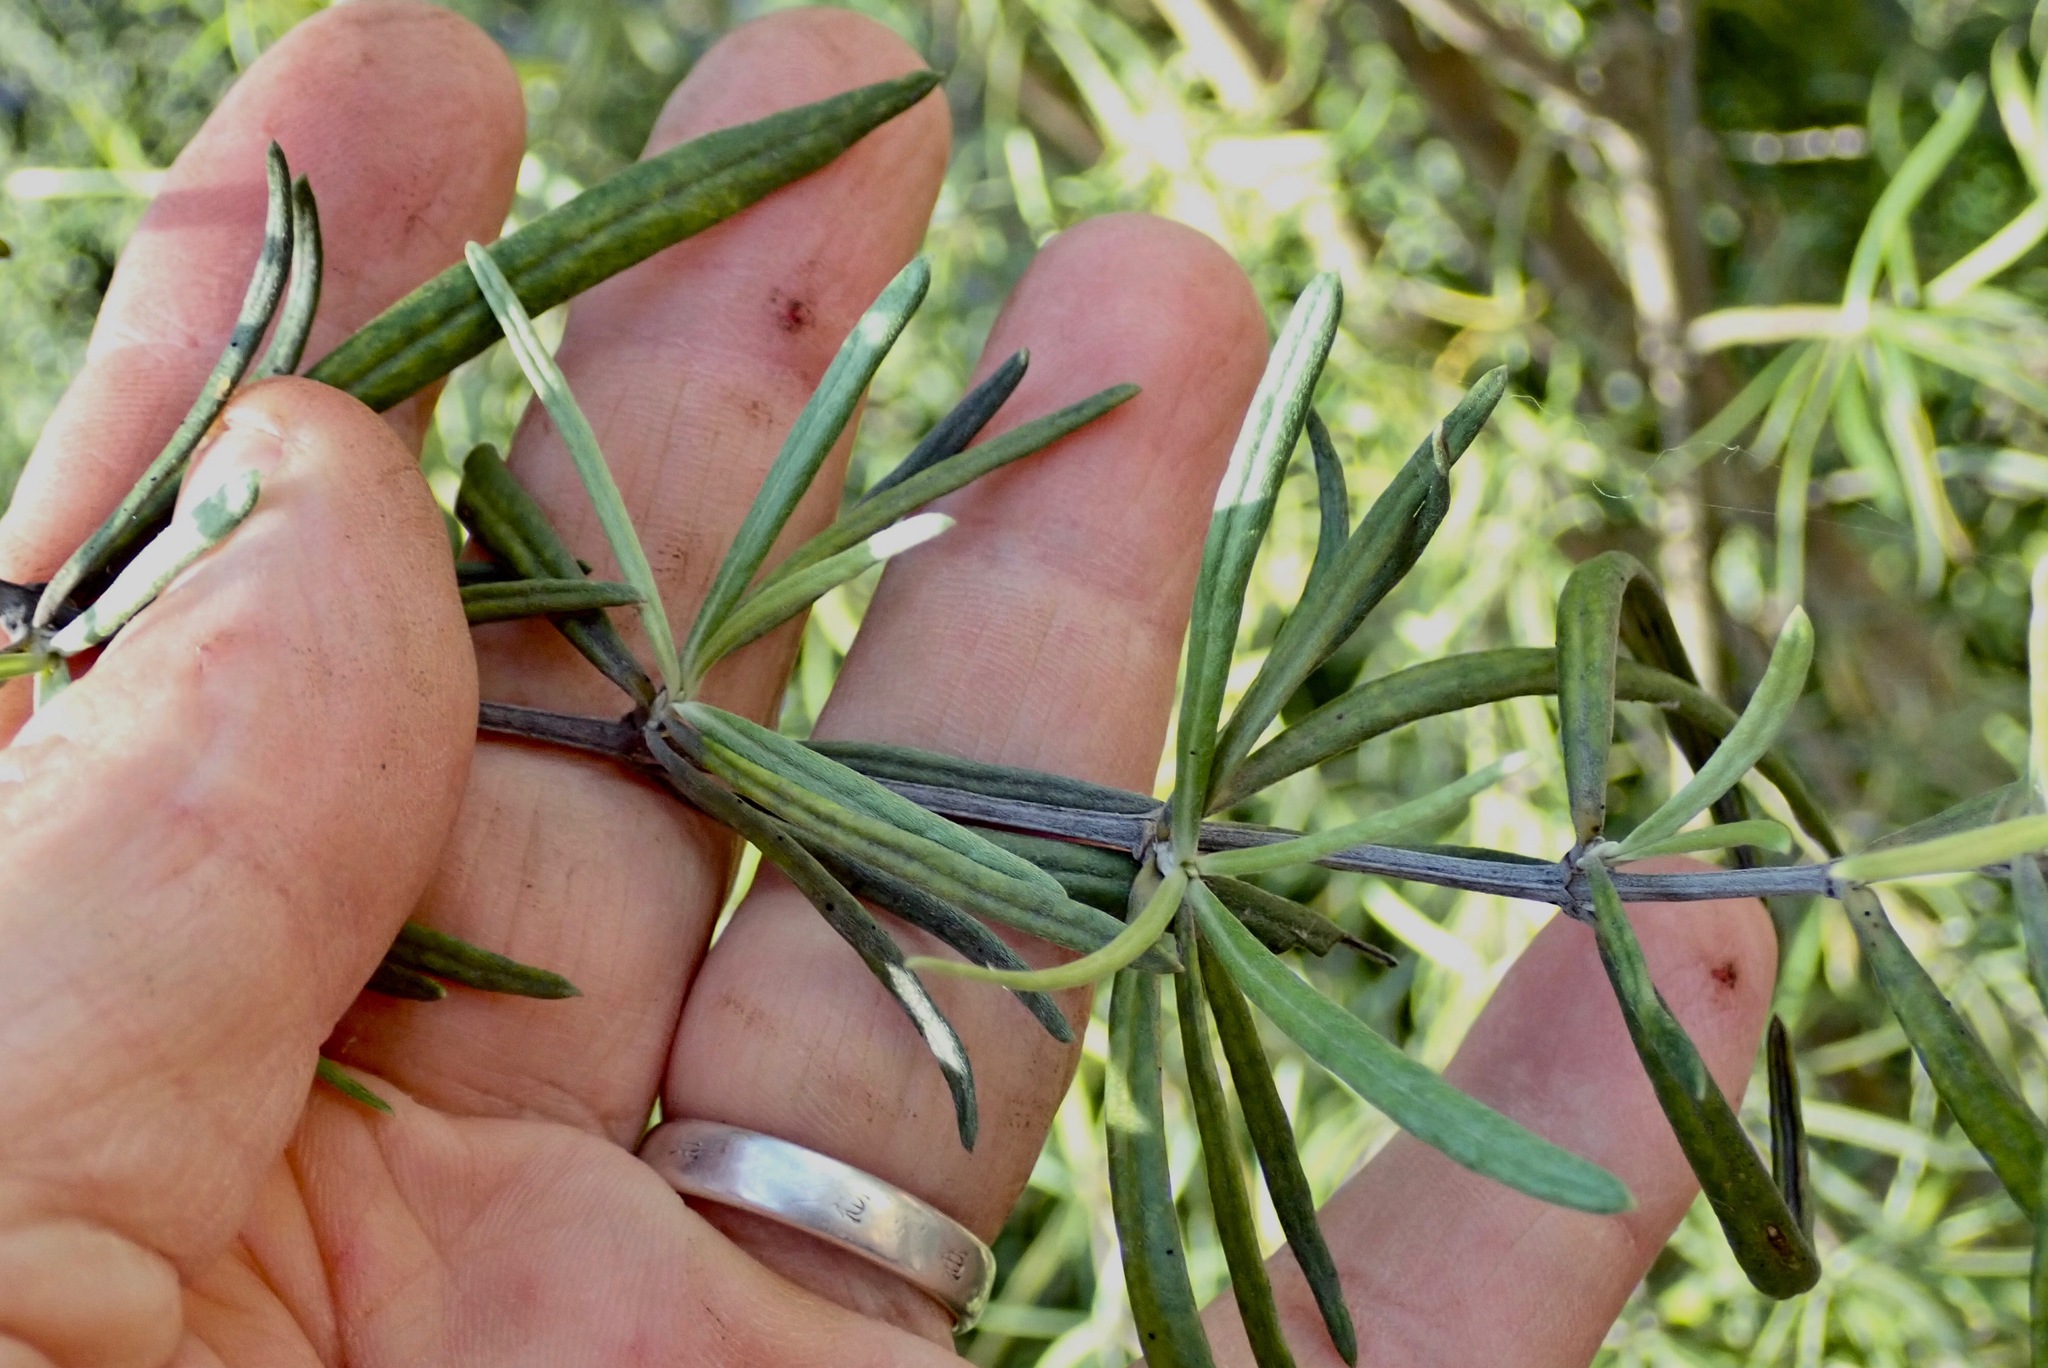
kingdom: Plantae
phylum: Tracheophyta
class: Magnoliopsida
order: Asterales
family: Asteraceae
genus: Olearia
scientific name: Olearia lineata
